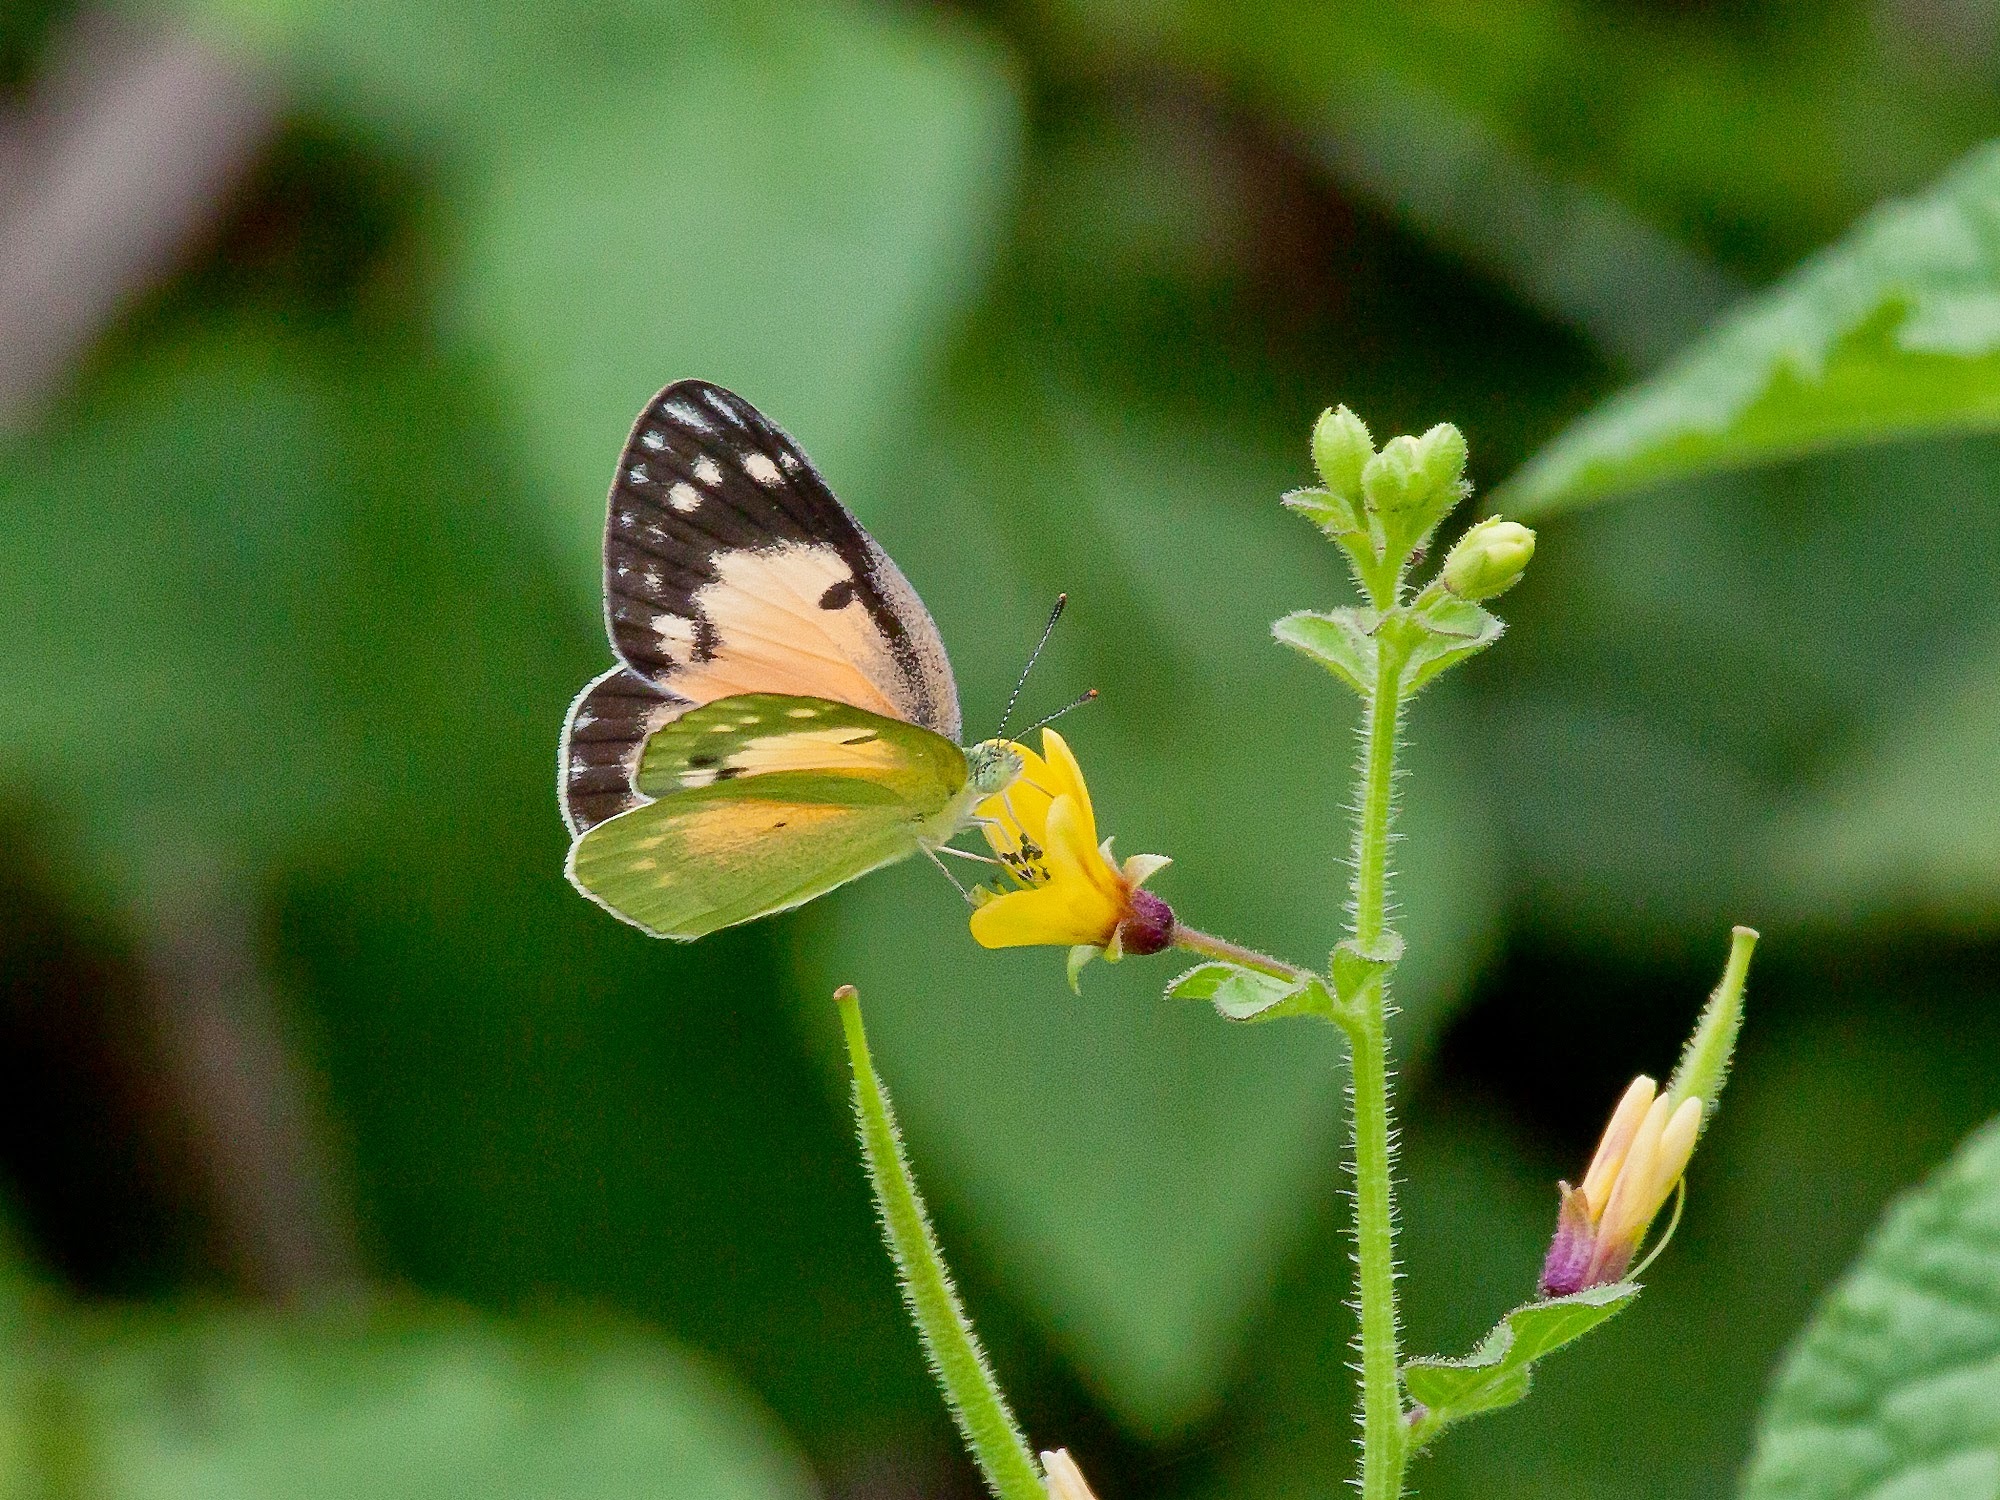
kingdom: Animalia
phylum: Arthropoda
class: Insecta
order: Lepidoptera
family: Pieridae
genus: Colotis
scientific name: Colotis amata
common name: Small salmon arab
